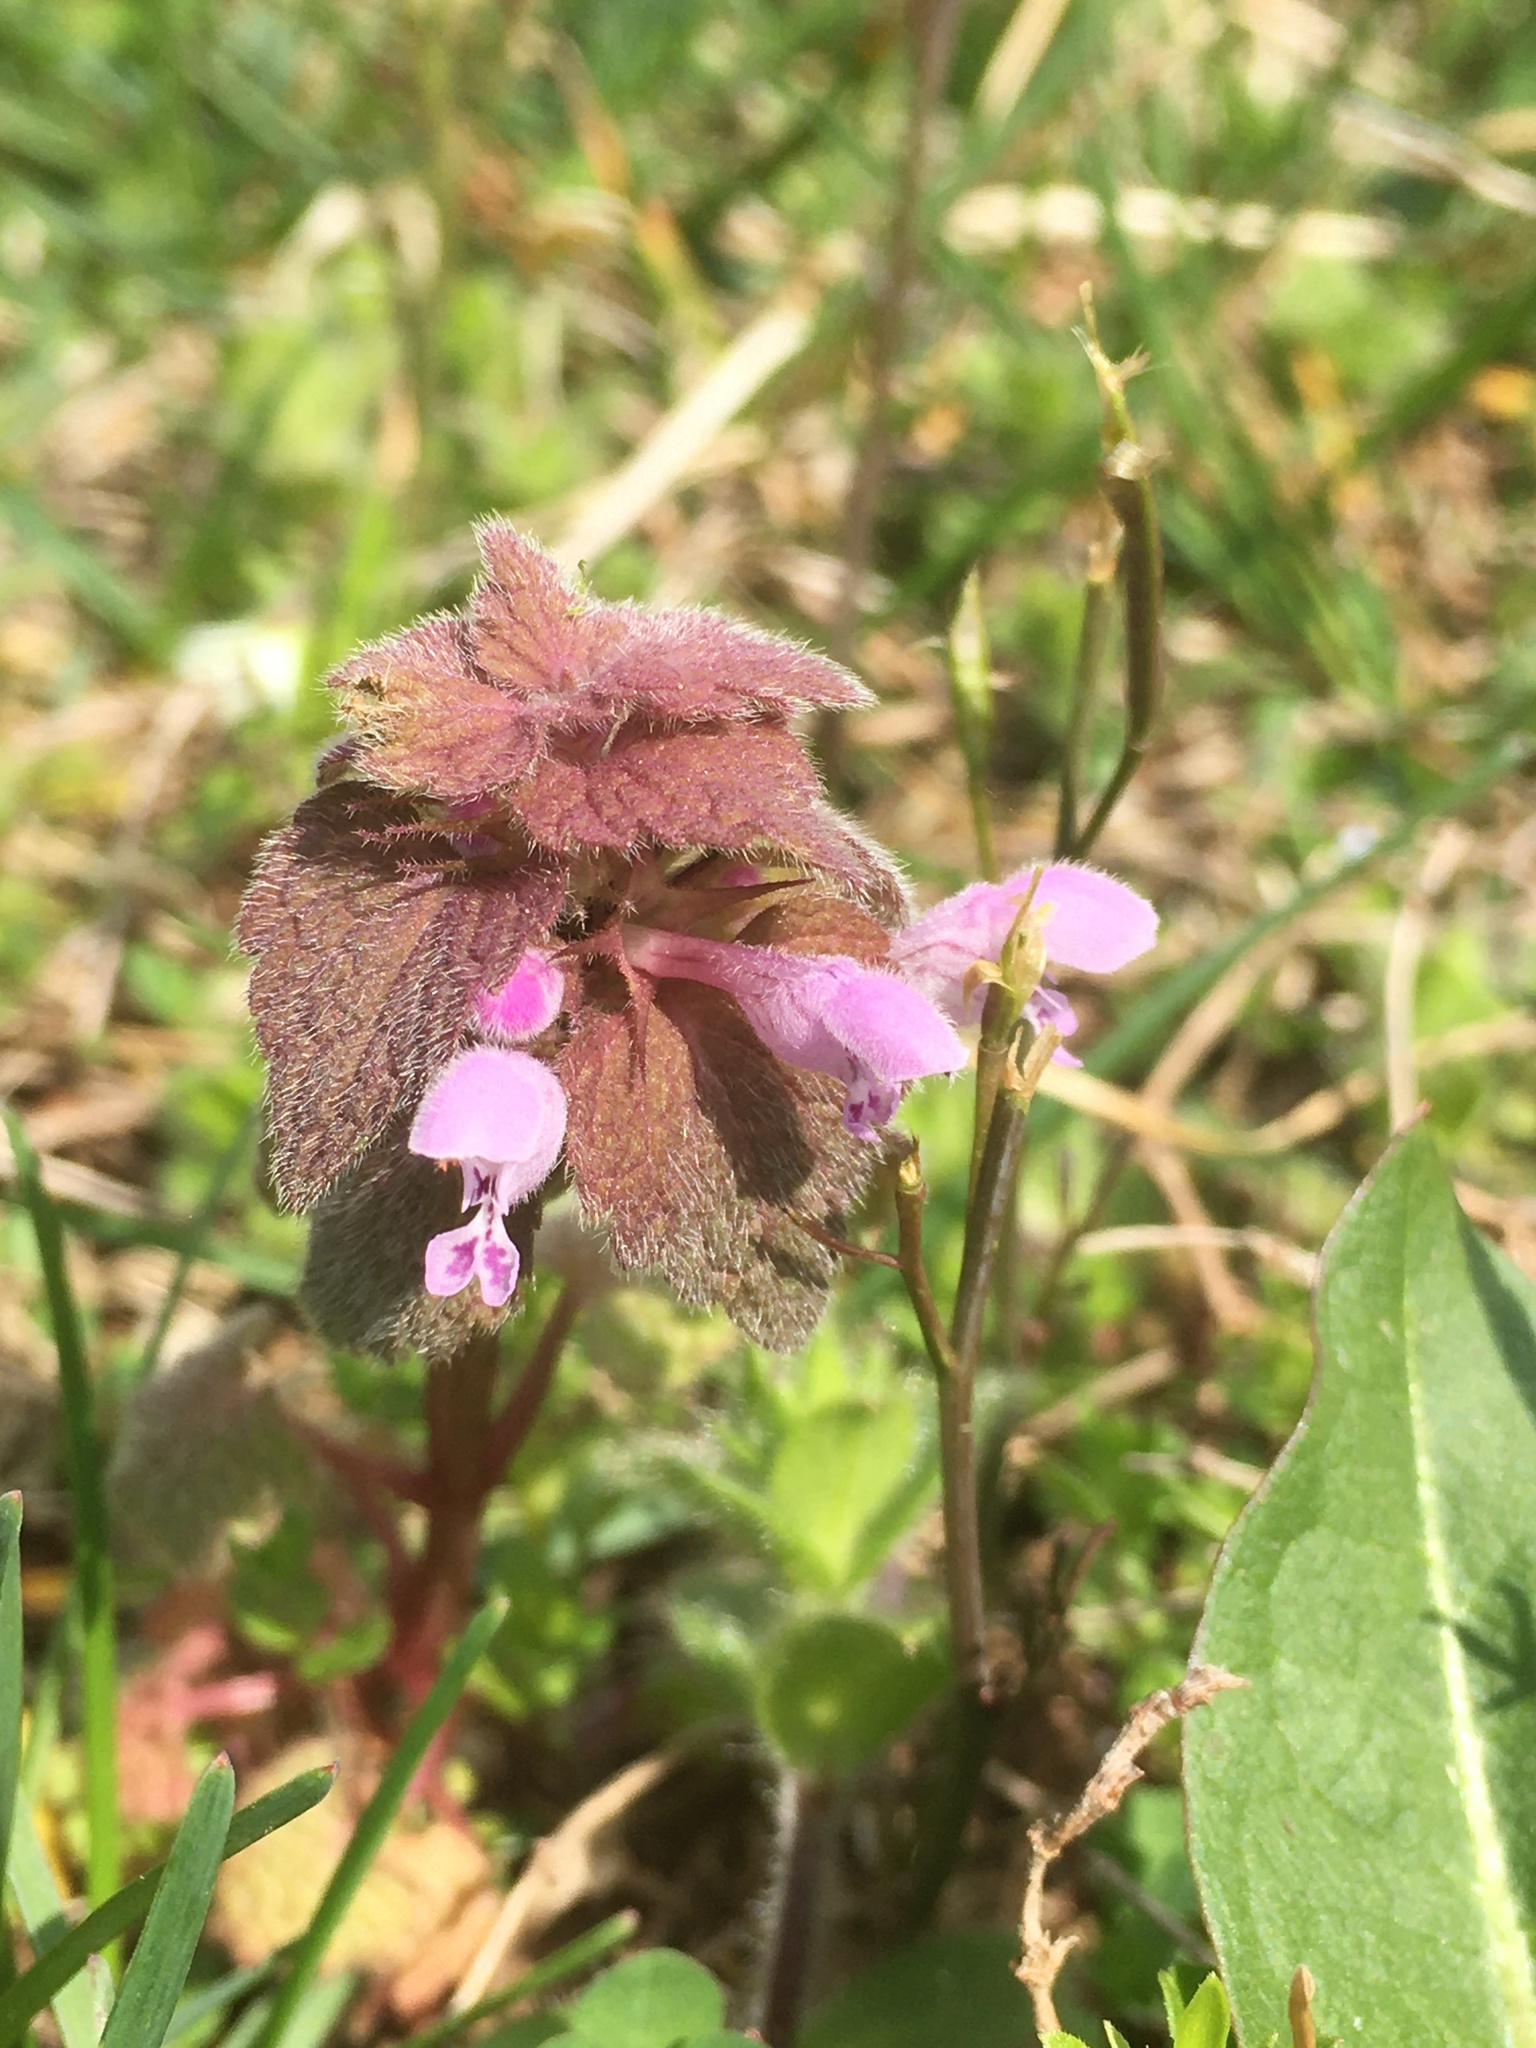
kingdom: Plantae
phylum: Tracheophyta
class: Magnoliopsida
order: Lamiales
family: Lamiaceae
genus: Lamium
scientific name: Lamium purpureum
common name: Red dead-nettle
